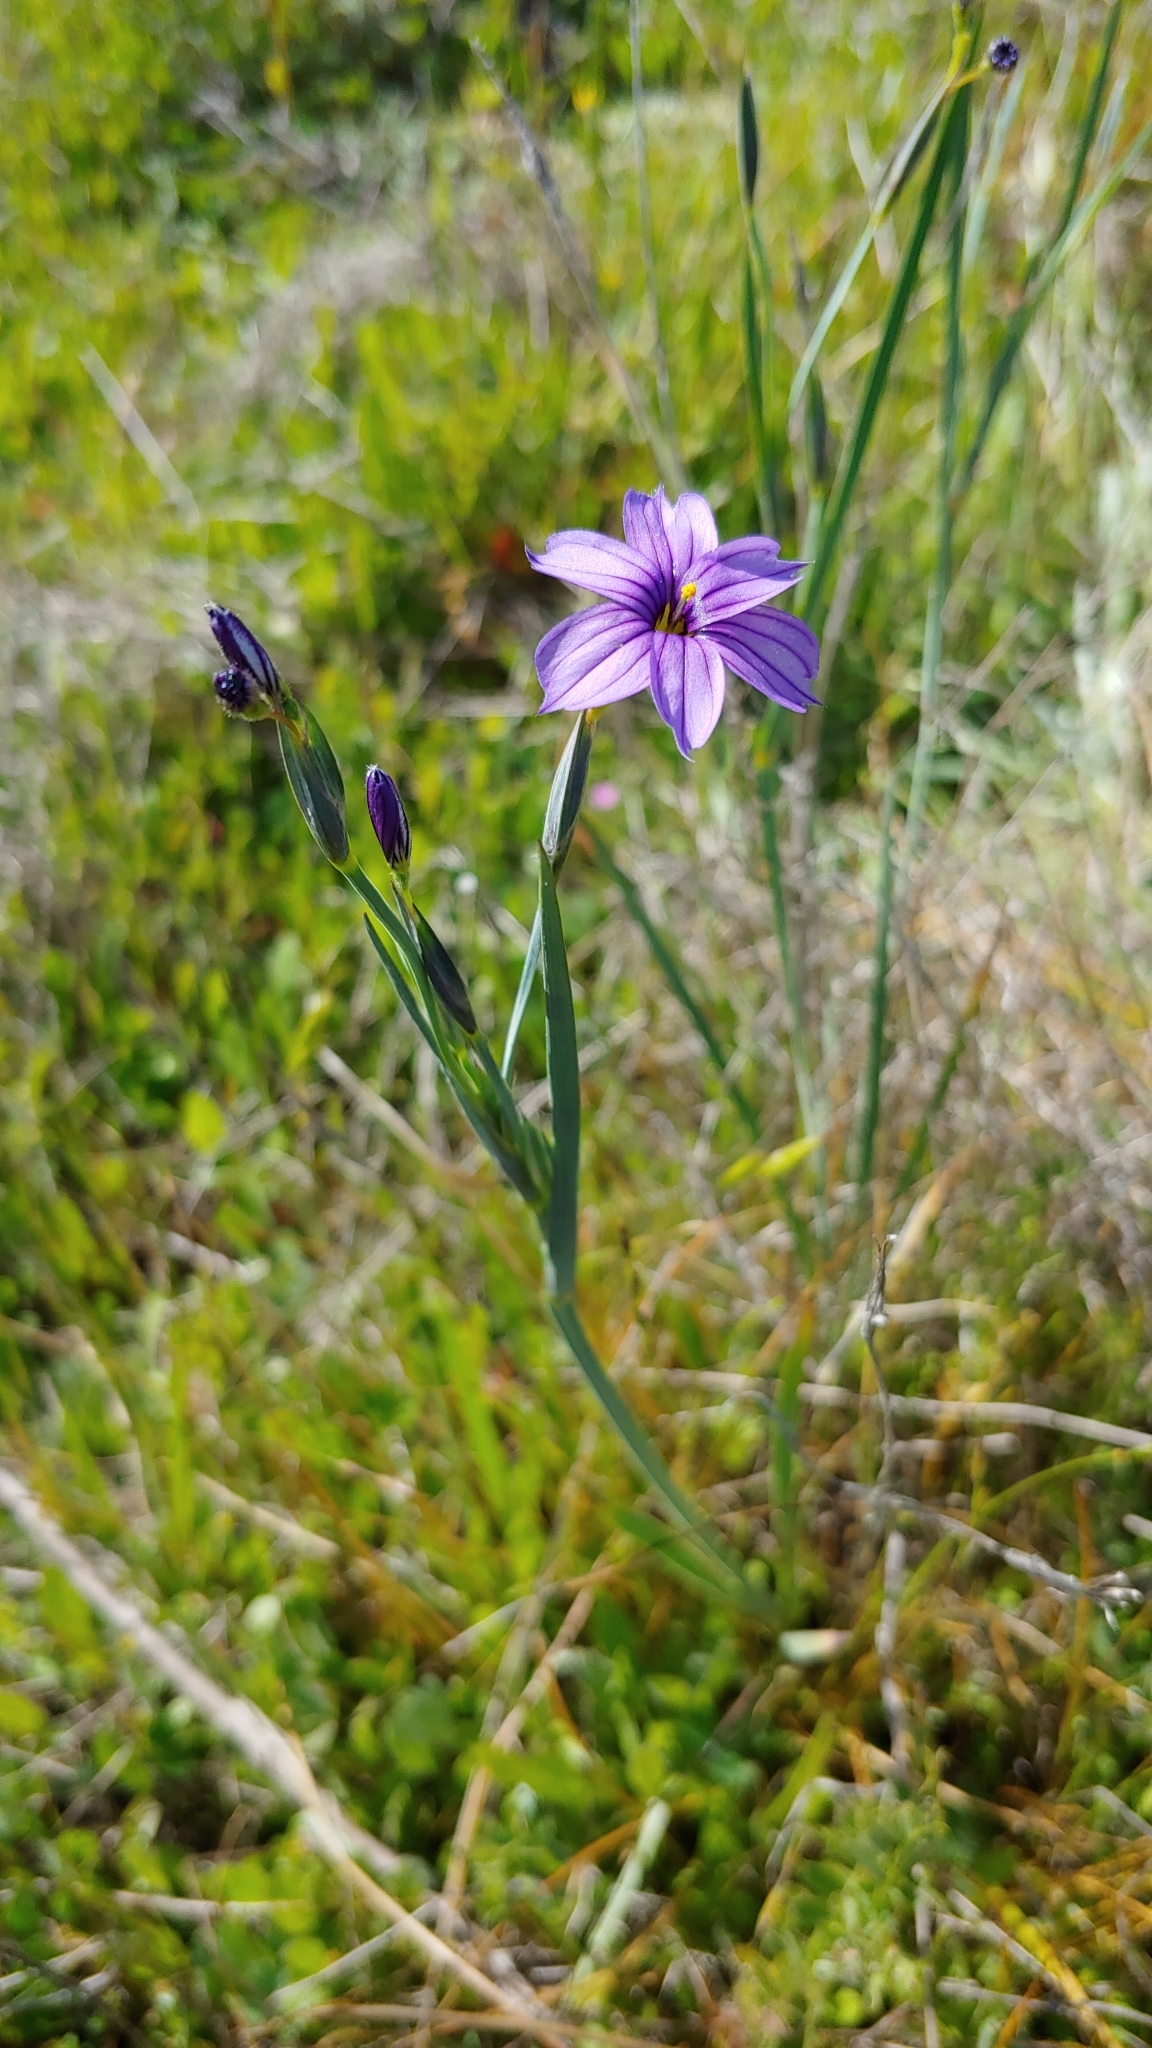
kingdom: Plantae
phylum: Tracheophyta
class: Liliopsida
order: Asparagales
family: Iridaceae
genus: Sisyrinchium
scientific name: Sisyrinchium bellum
